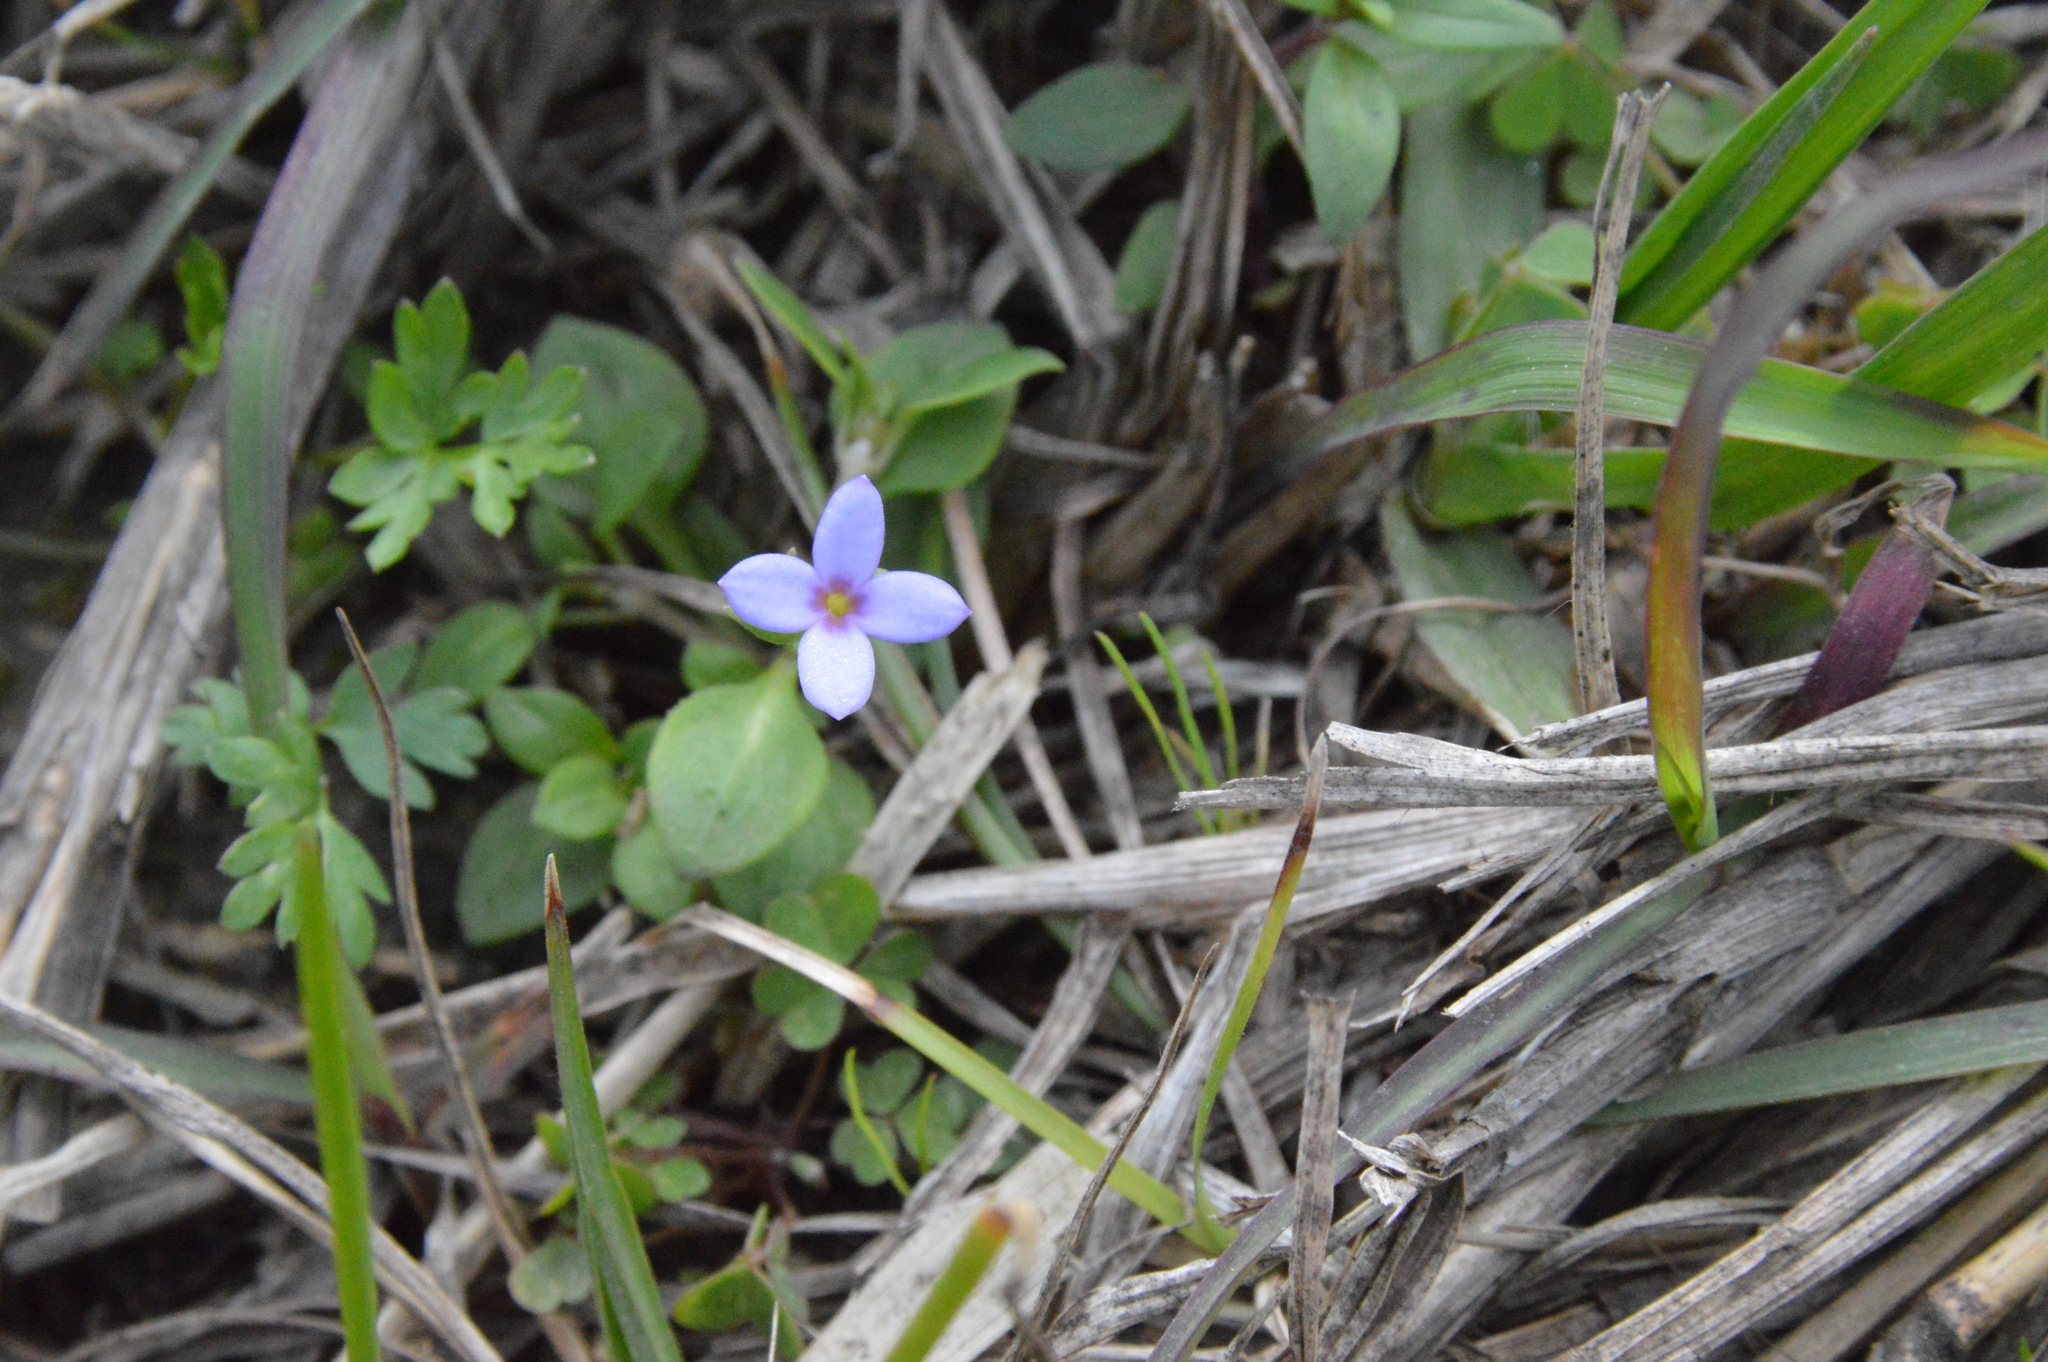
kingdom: Plantae
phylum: Tracheophyta
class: Magnoliopsida
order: Gentianales
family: Rubiaceae
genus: Houstonia
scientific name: Houstonia pusilla
